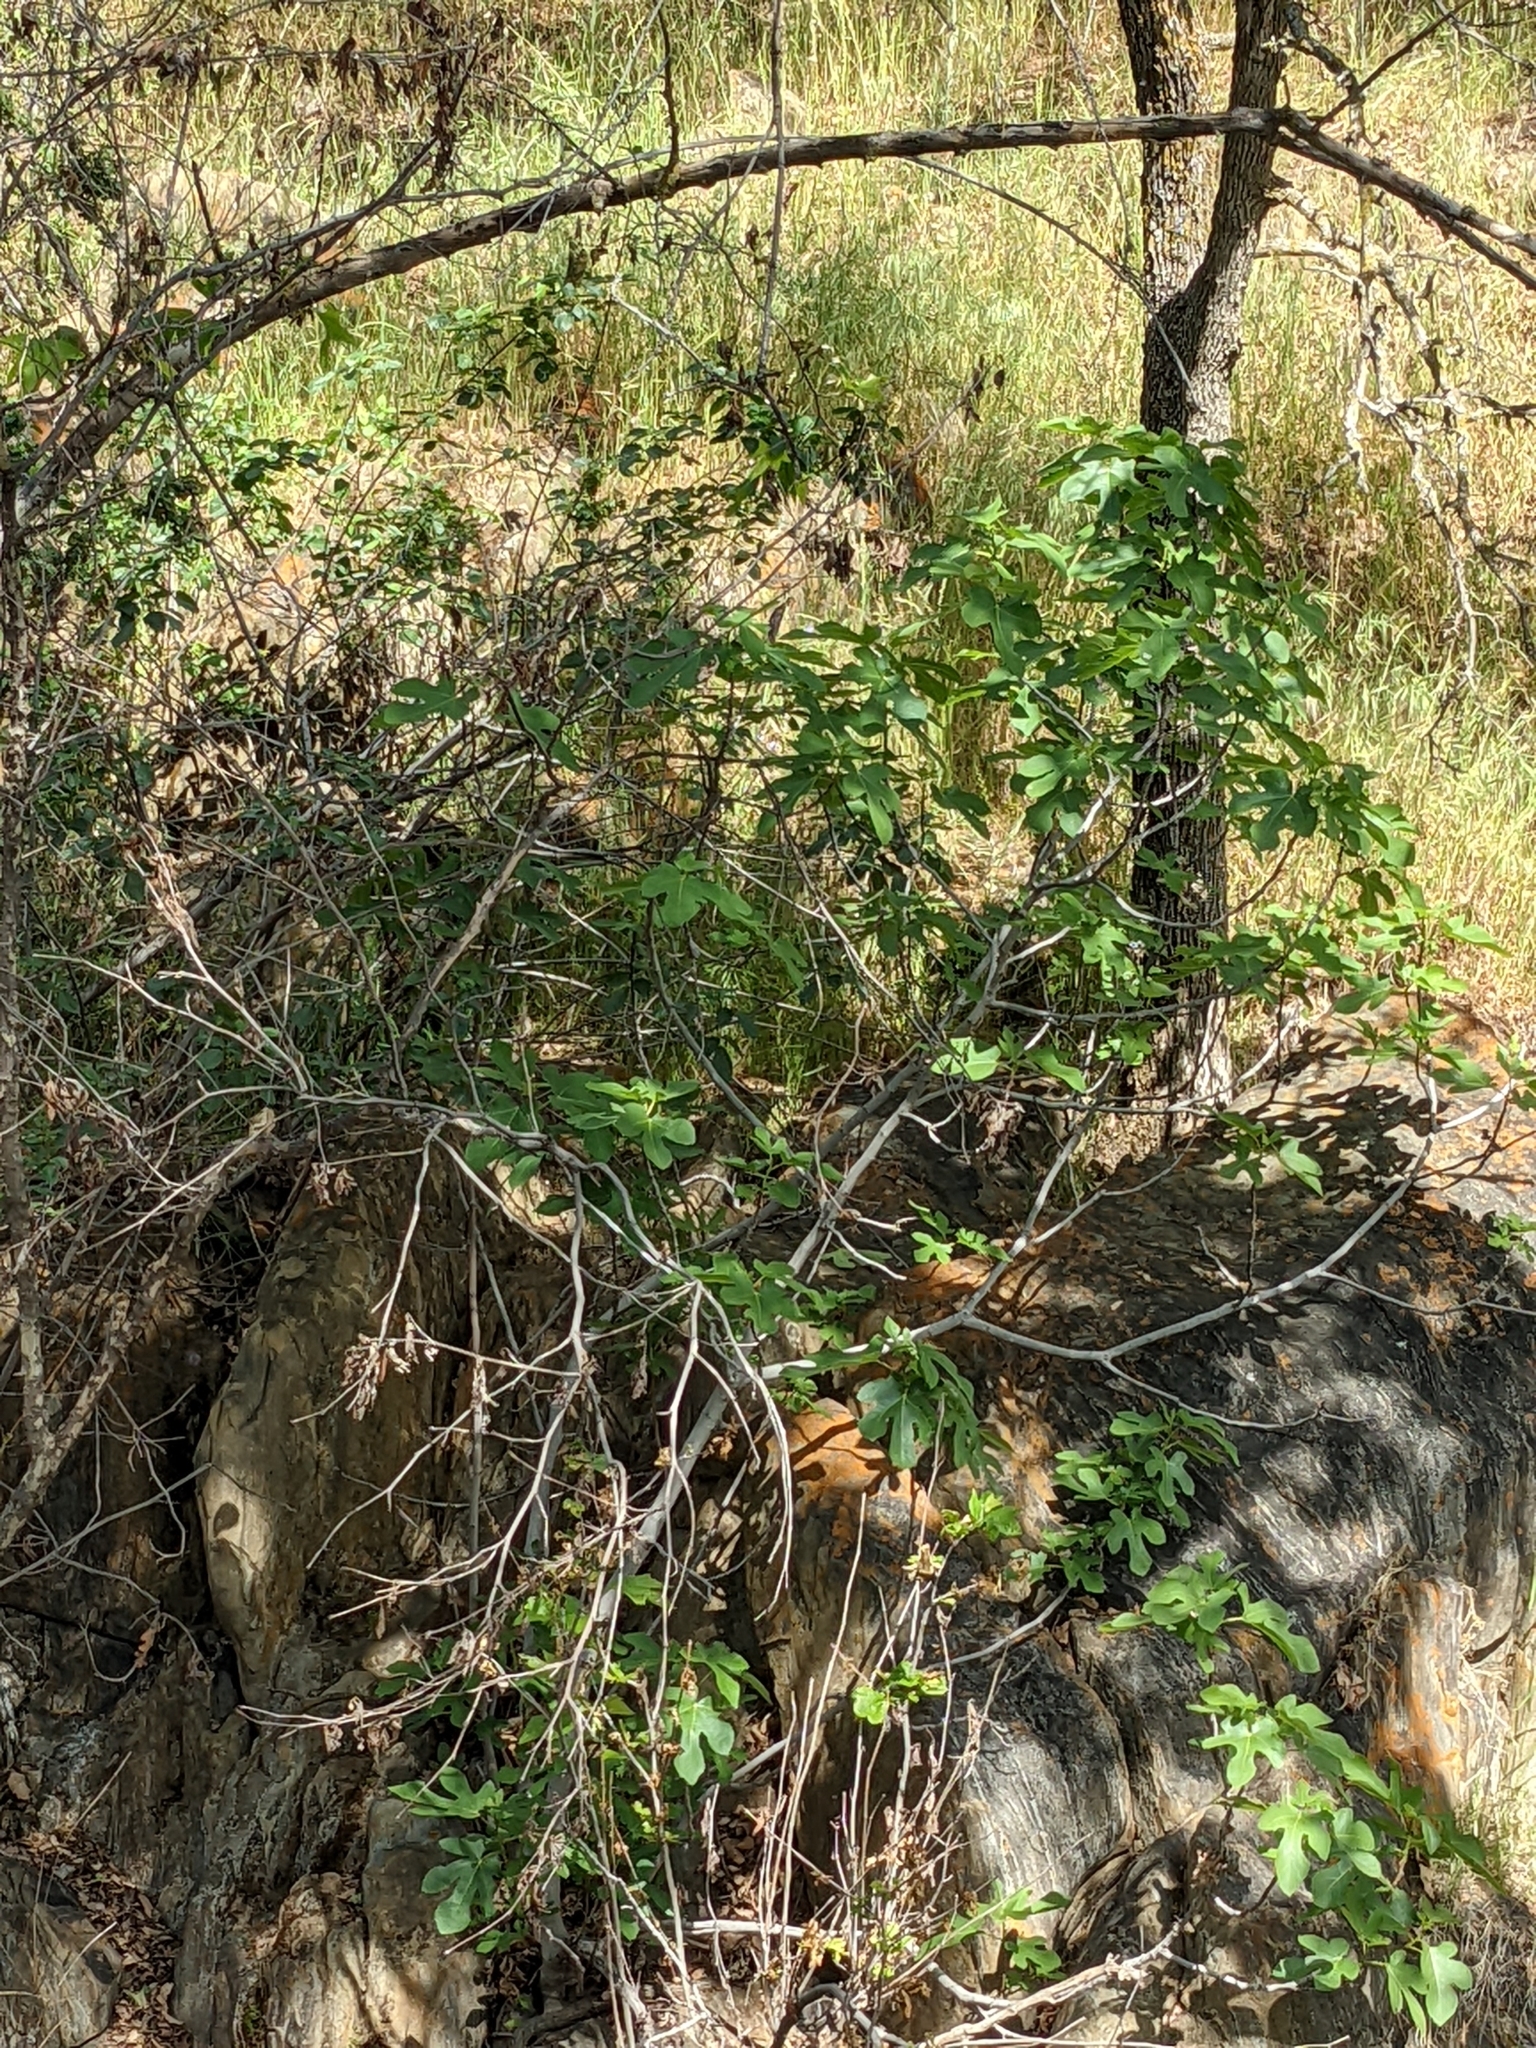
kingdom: Plantae
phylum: Tracheophyta
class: Magnoliopsida
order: Rosales
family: Moraceae
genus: Ficus
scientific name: Ficus carica
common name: Fig
